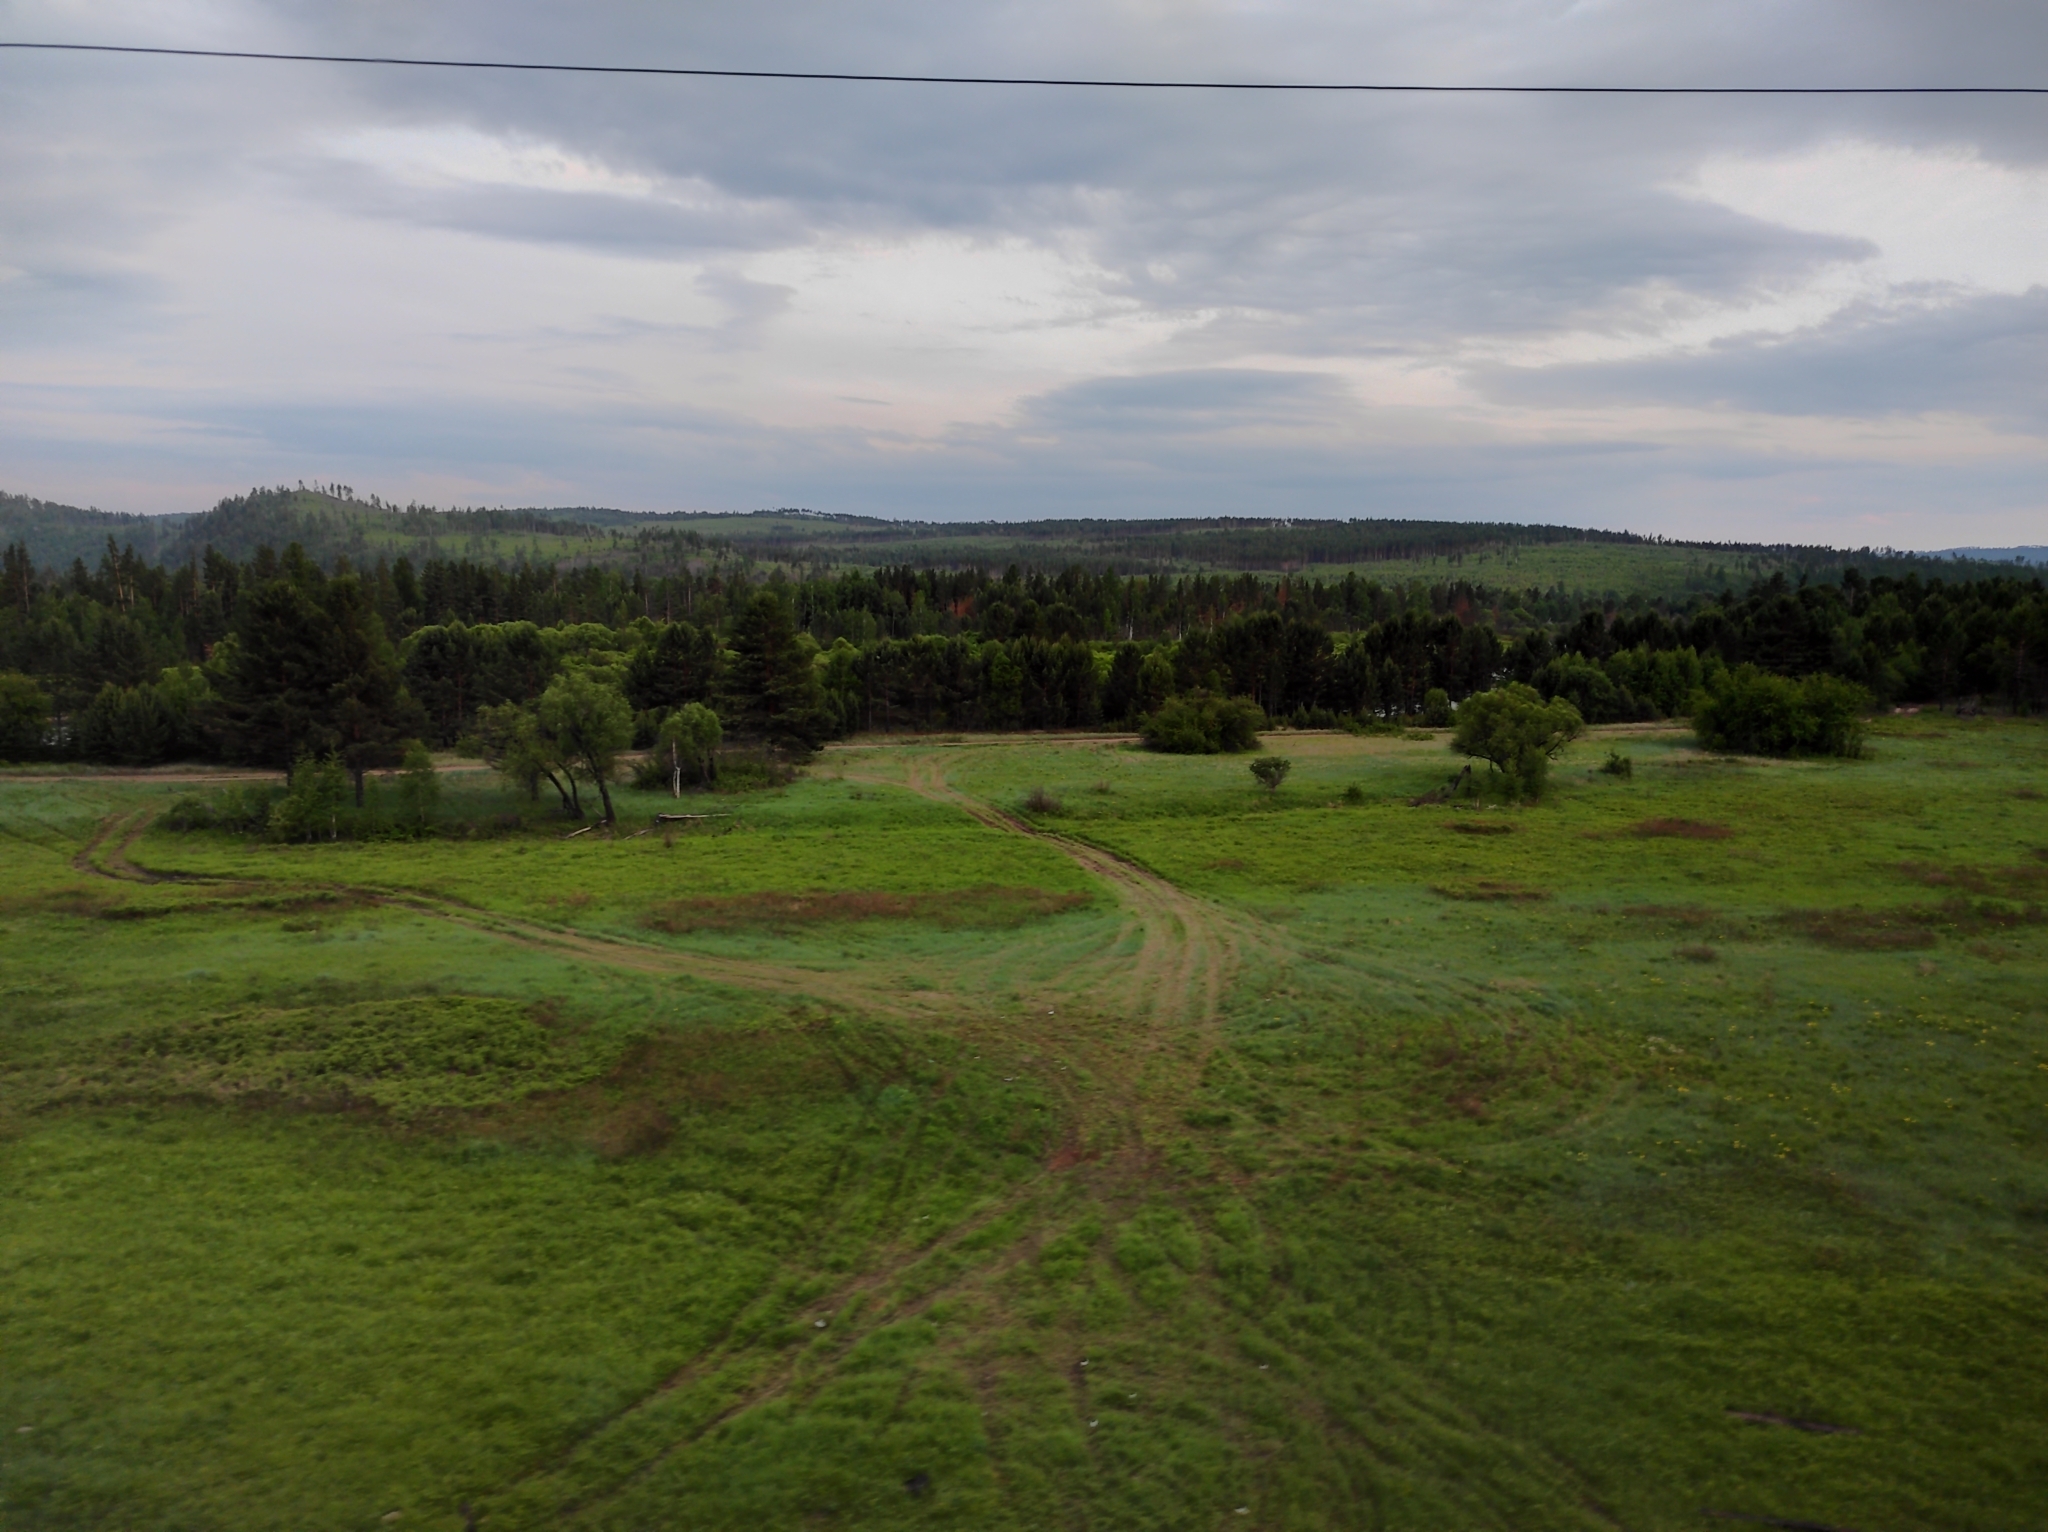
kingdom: Plantae
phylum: Tracheophyta
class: Pinopsida
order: Pinales
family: Pinaceae
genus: Pinus
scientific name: Pinus sylvestris
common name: Scots pine
